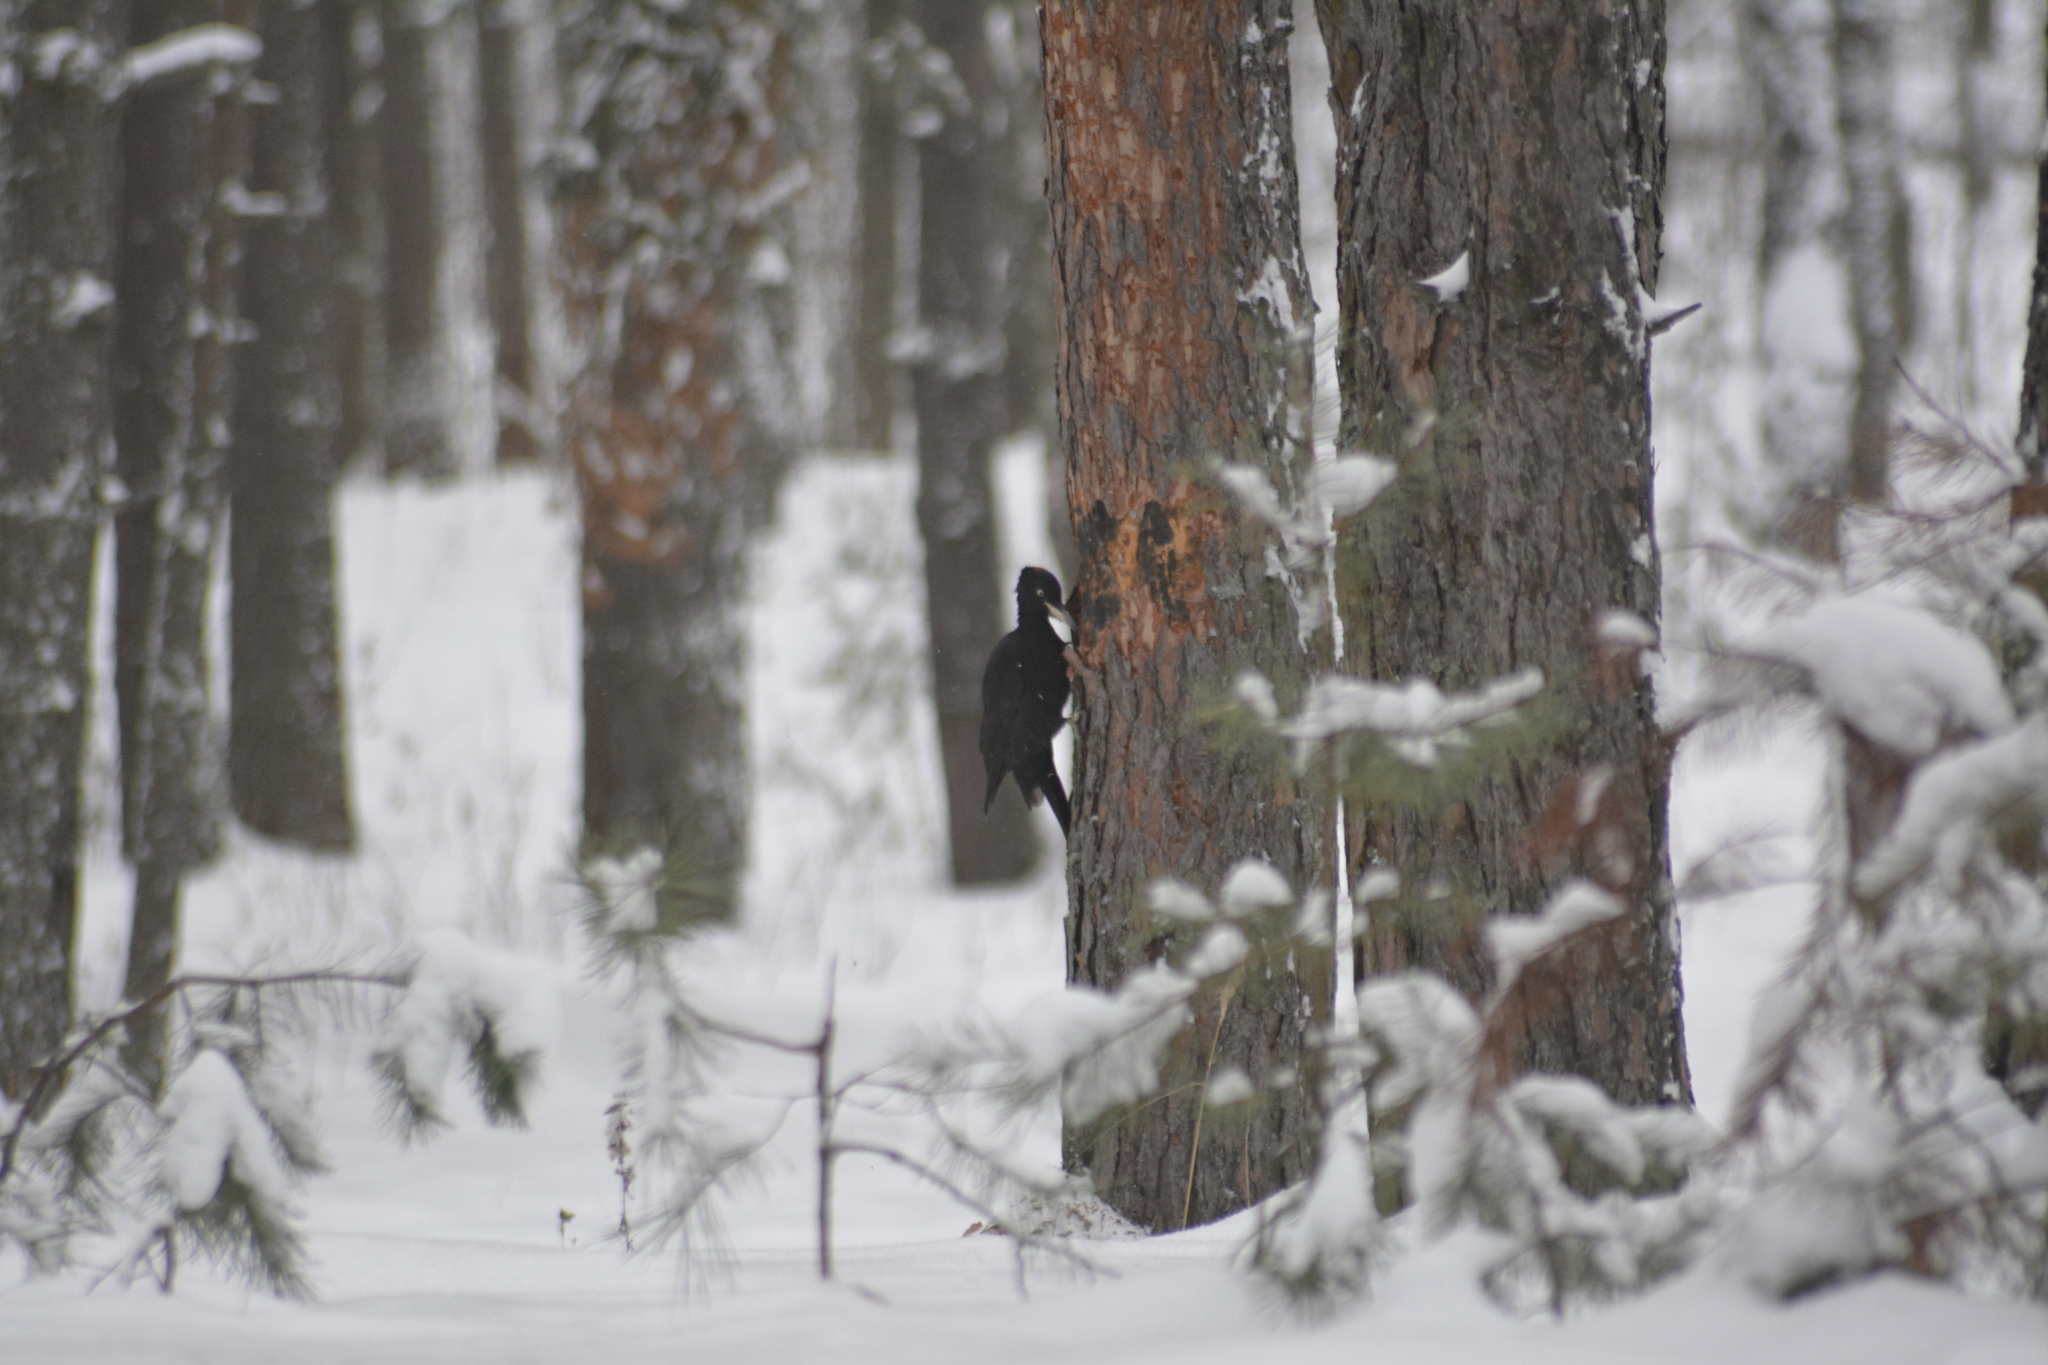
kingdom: Animalia
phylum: Chordata
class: Aves
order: Piciformes
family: Picidae
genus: Dryocopus
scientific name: Dryocopus martius
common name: Black woodpecker
